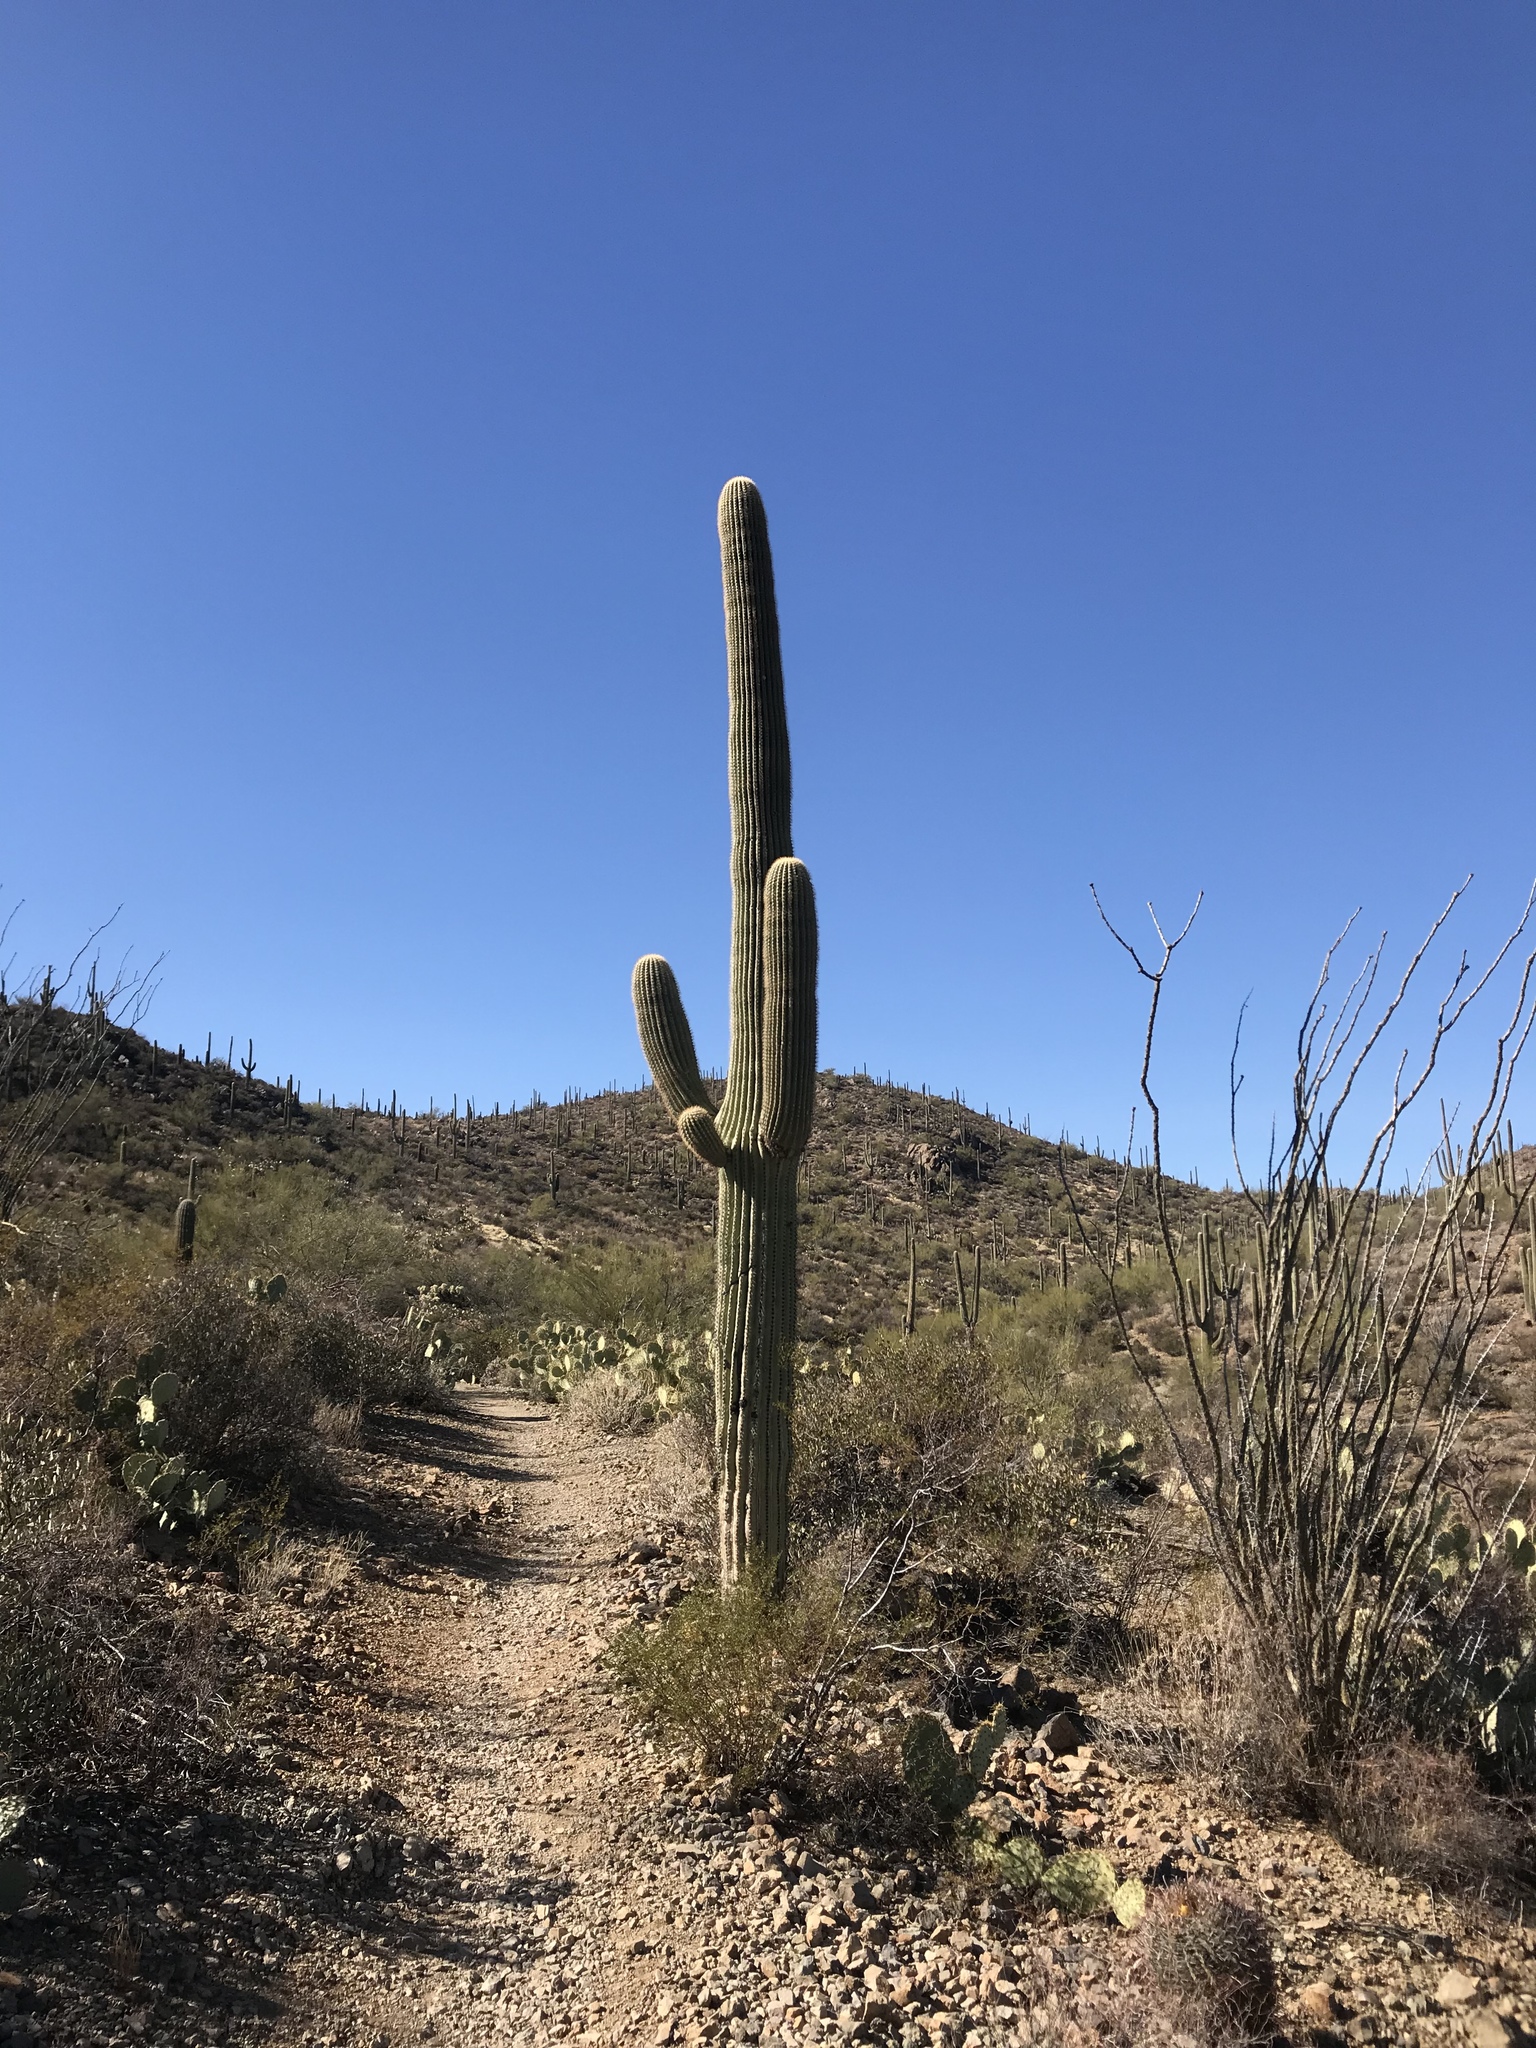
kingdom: Plantae
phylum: Tracheophyta
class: Magnoliopsida
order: Caryophyllales
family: Cactaceae
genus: Carnegiea
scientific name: Carnegiea gigantea
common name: Saguaro
